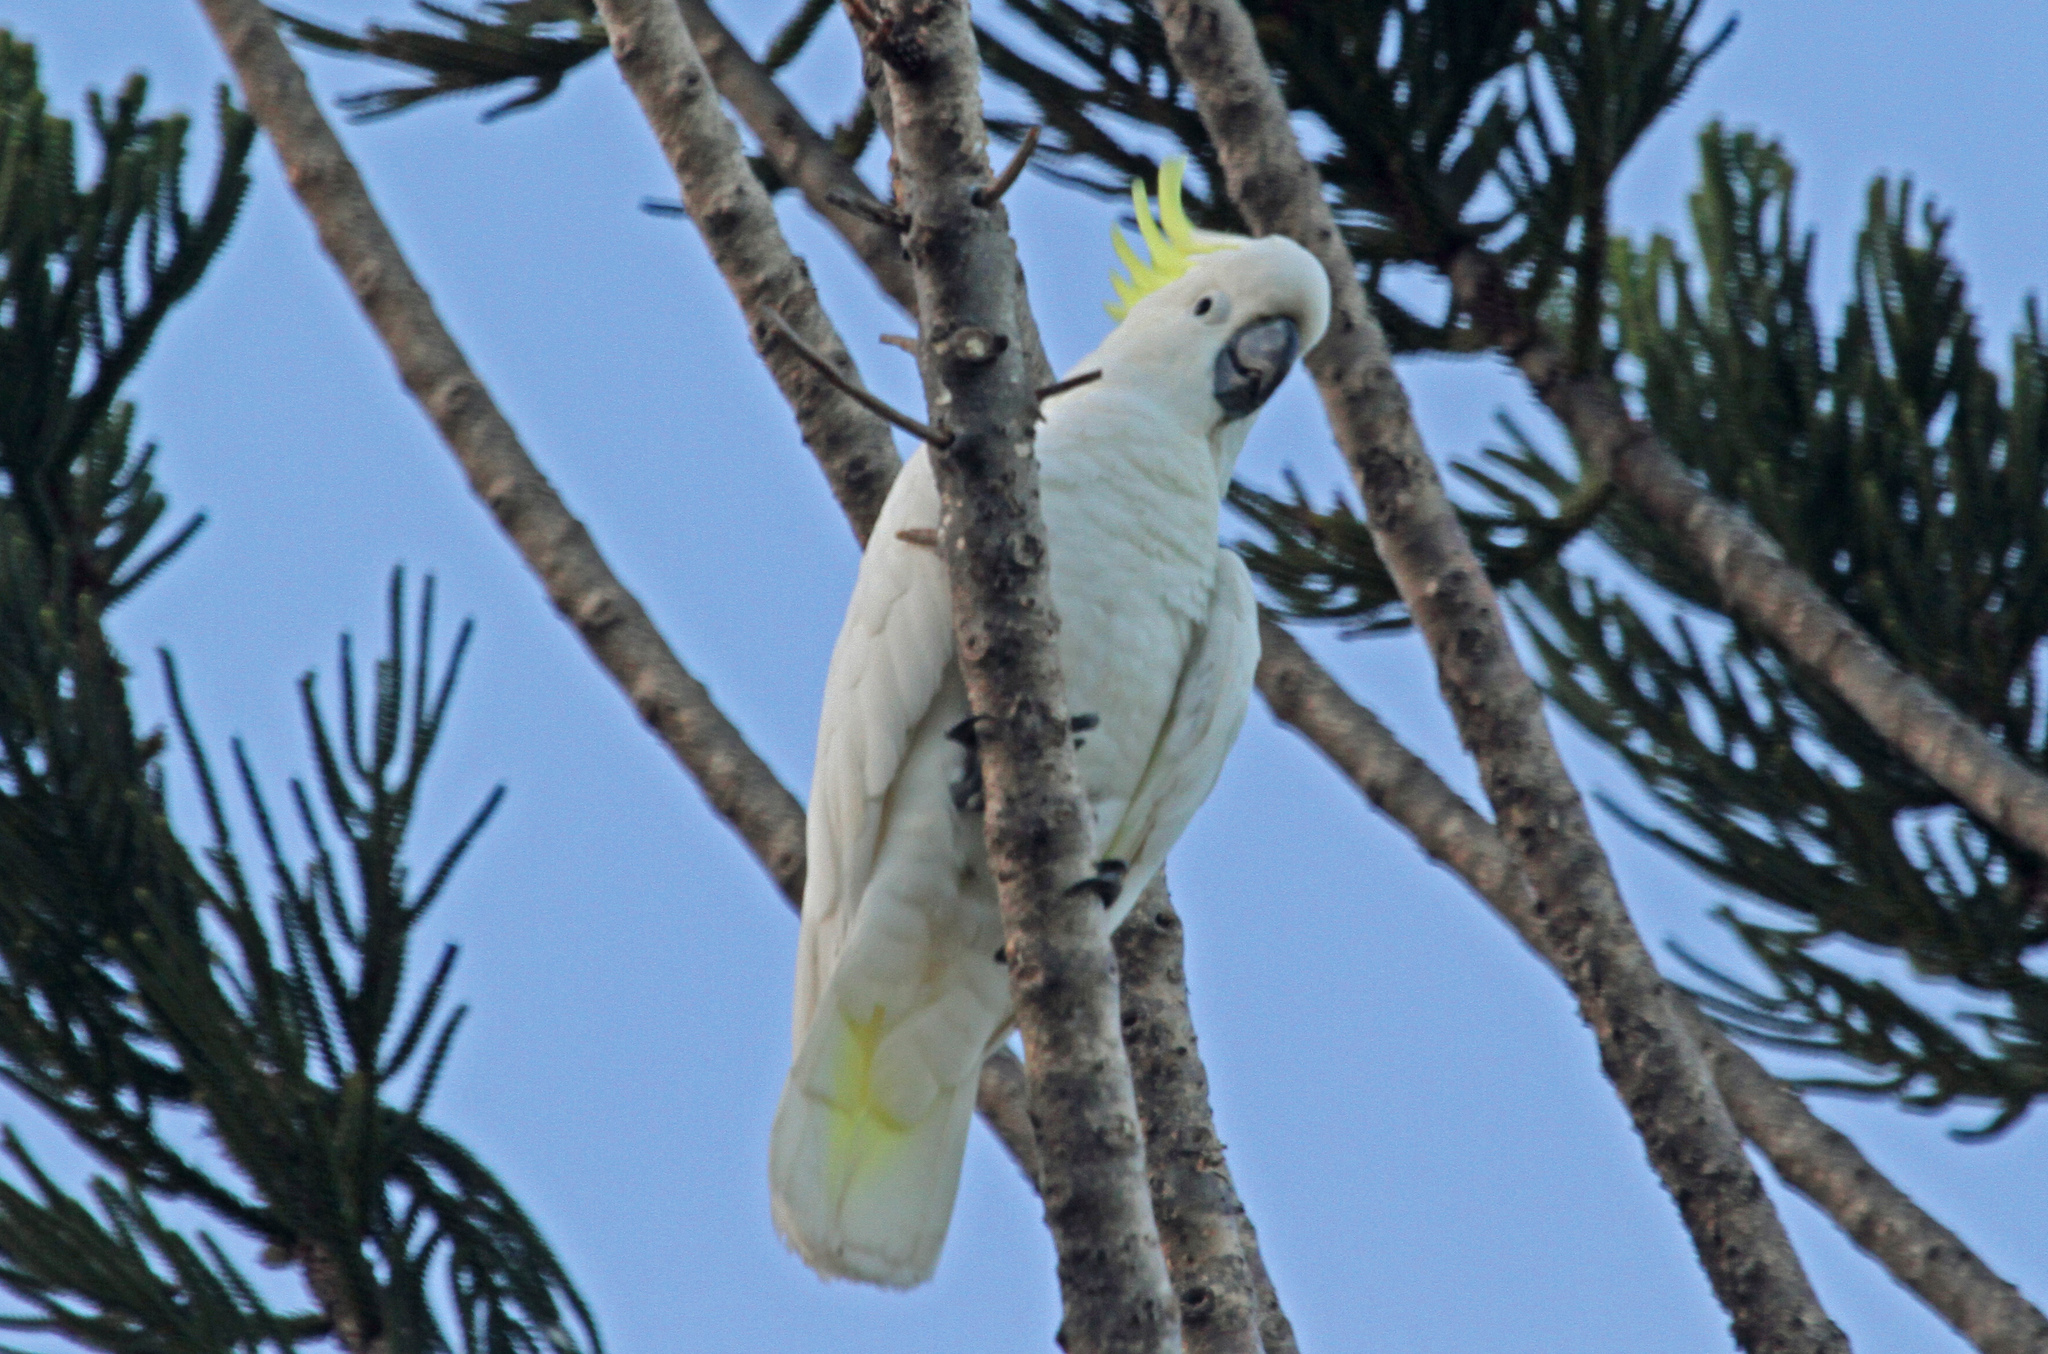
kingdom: Animalia
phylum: Chordata
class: Aves
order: Psittaciformes
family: Psittacidae
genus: Cacatua
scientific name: Cacatua galerita
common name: Sulphur-crested cockatoo
